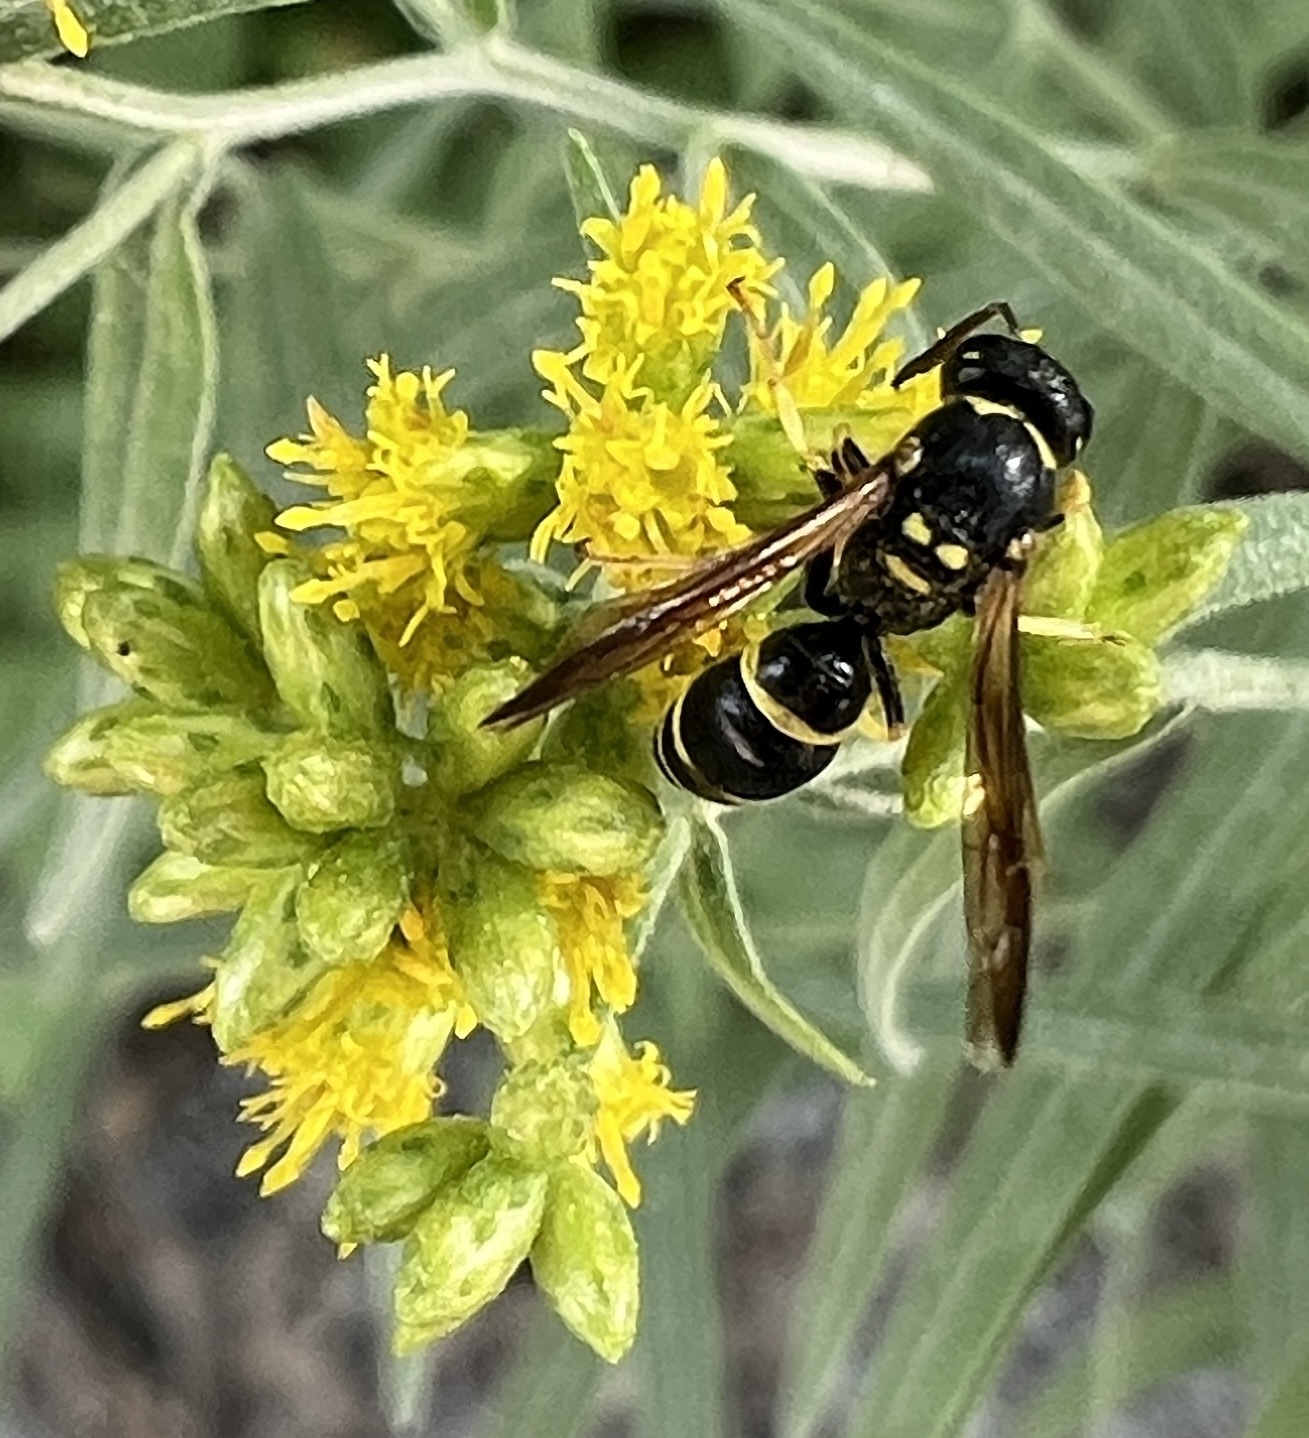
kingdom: Animalia
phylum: Arthropoda
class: Insecta
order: Hymenoptera
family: Vespidae
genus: Ancistrocerus
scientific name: Ancistrocerus adiabatus
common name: Bramble mason wasp
